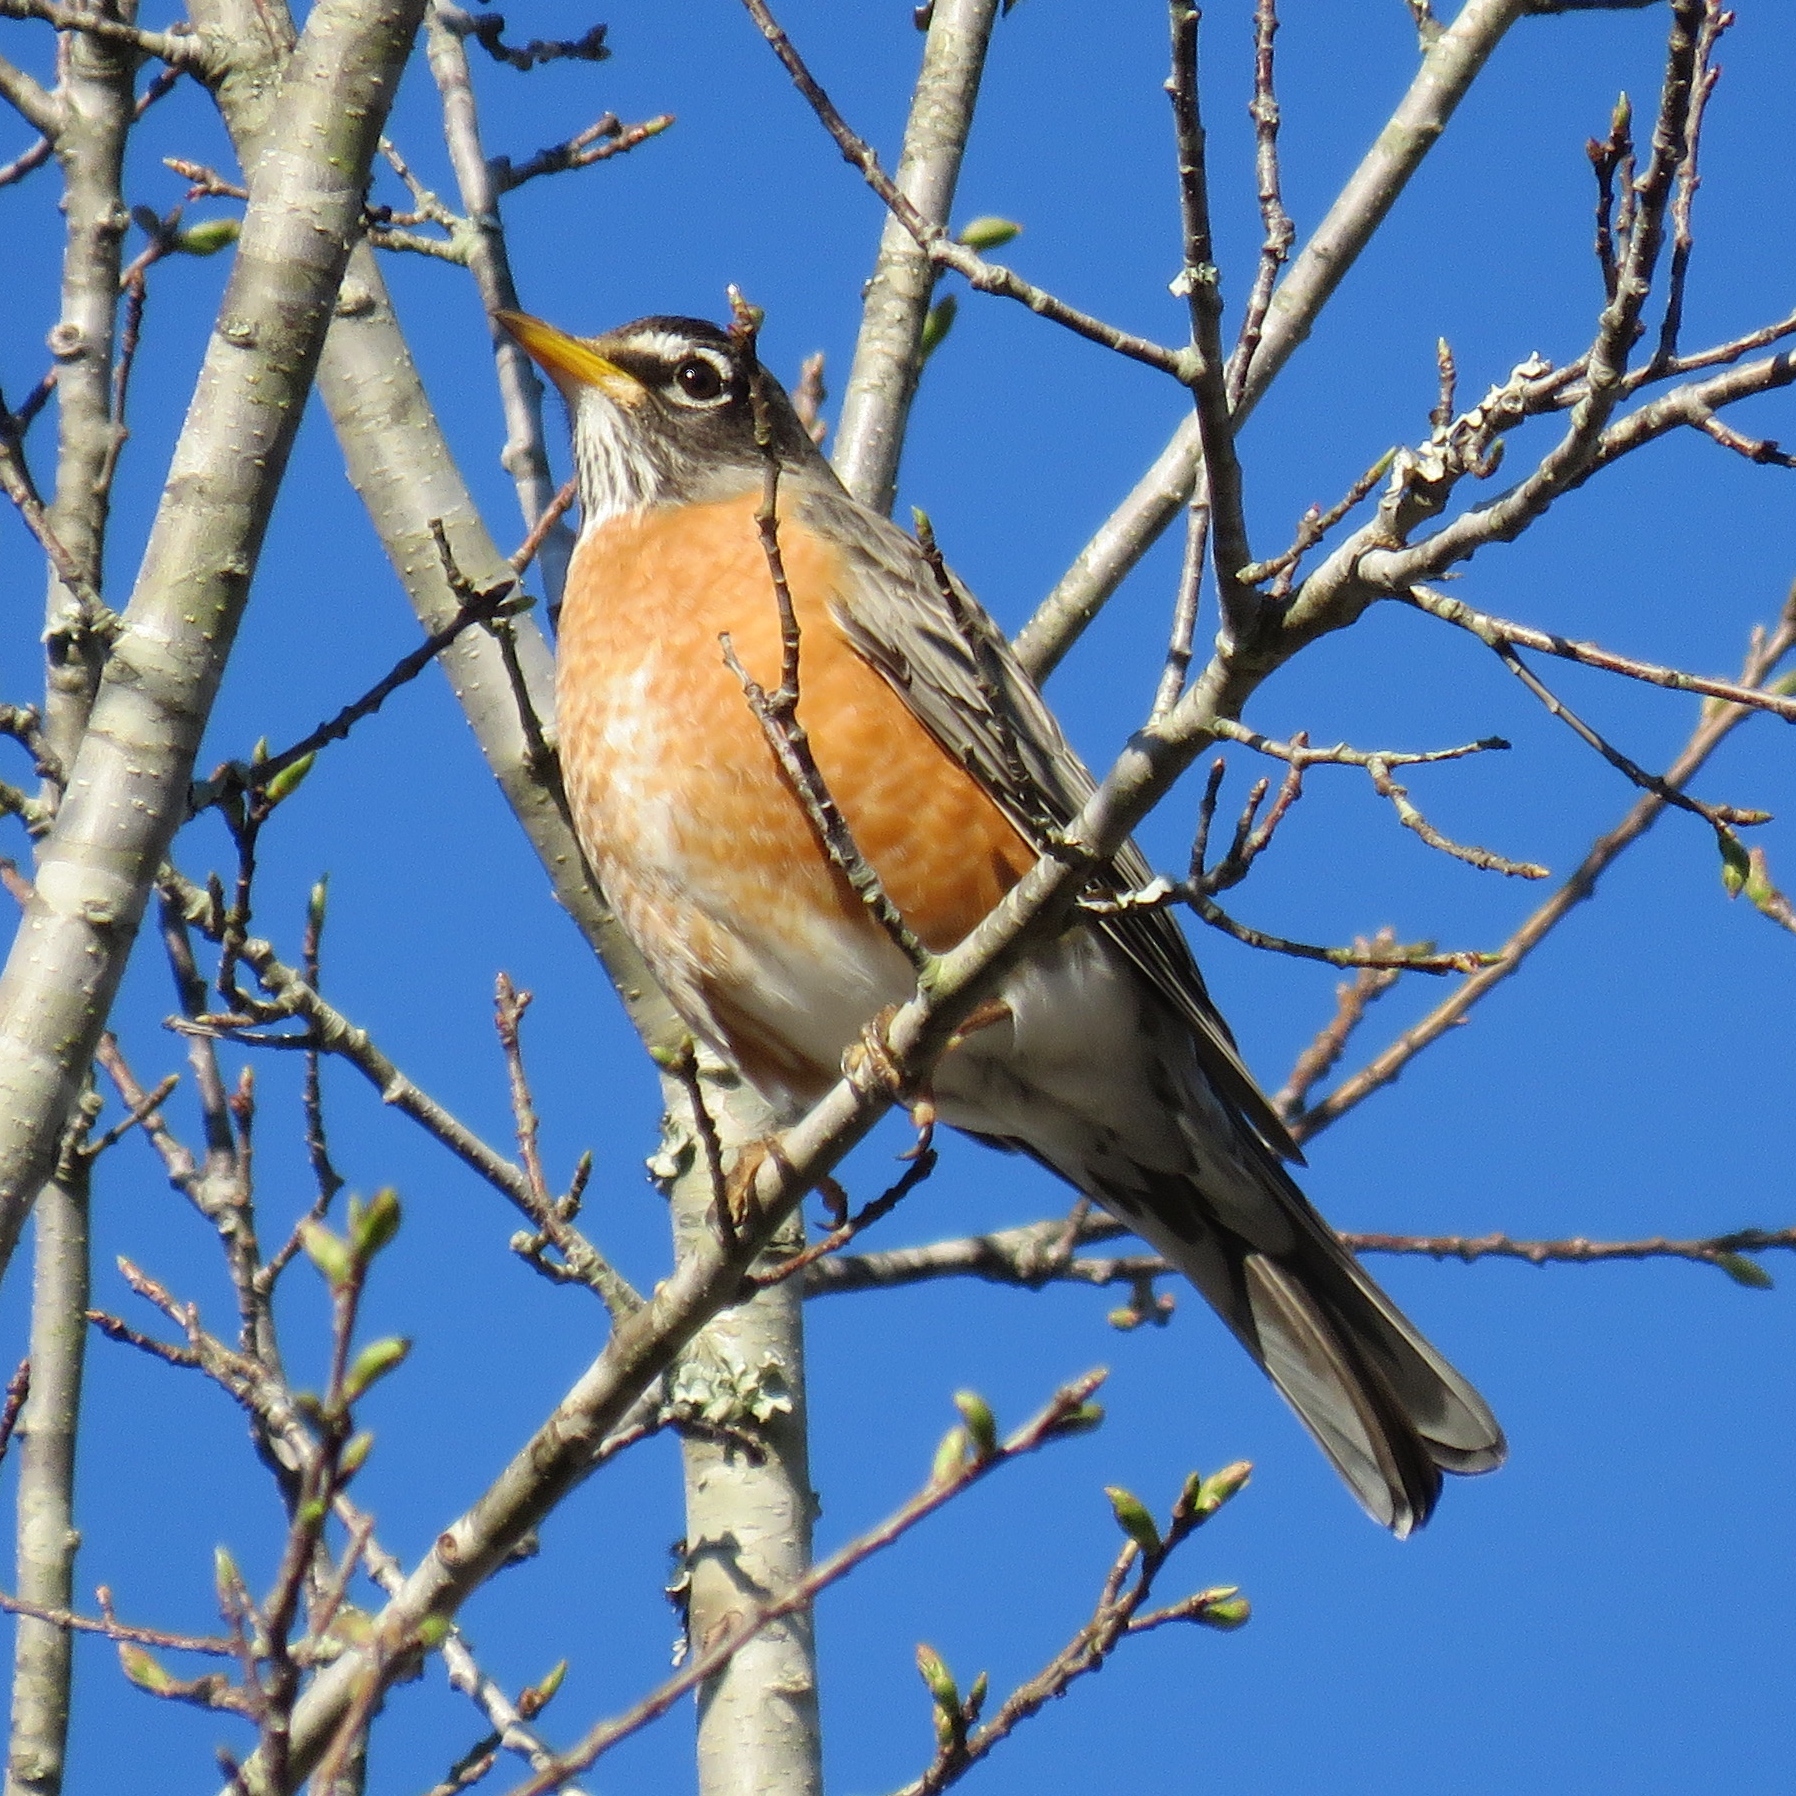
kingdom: Animalia
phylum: Chordata
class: Aves
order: Passeriformes
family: Turdidae
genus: Turdus
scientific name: Turdus migratorius
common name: American robin
